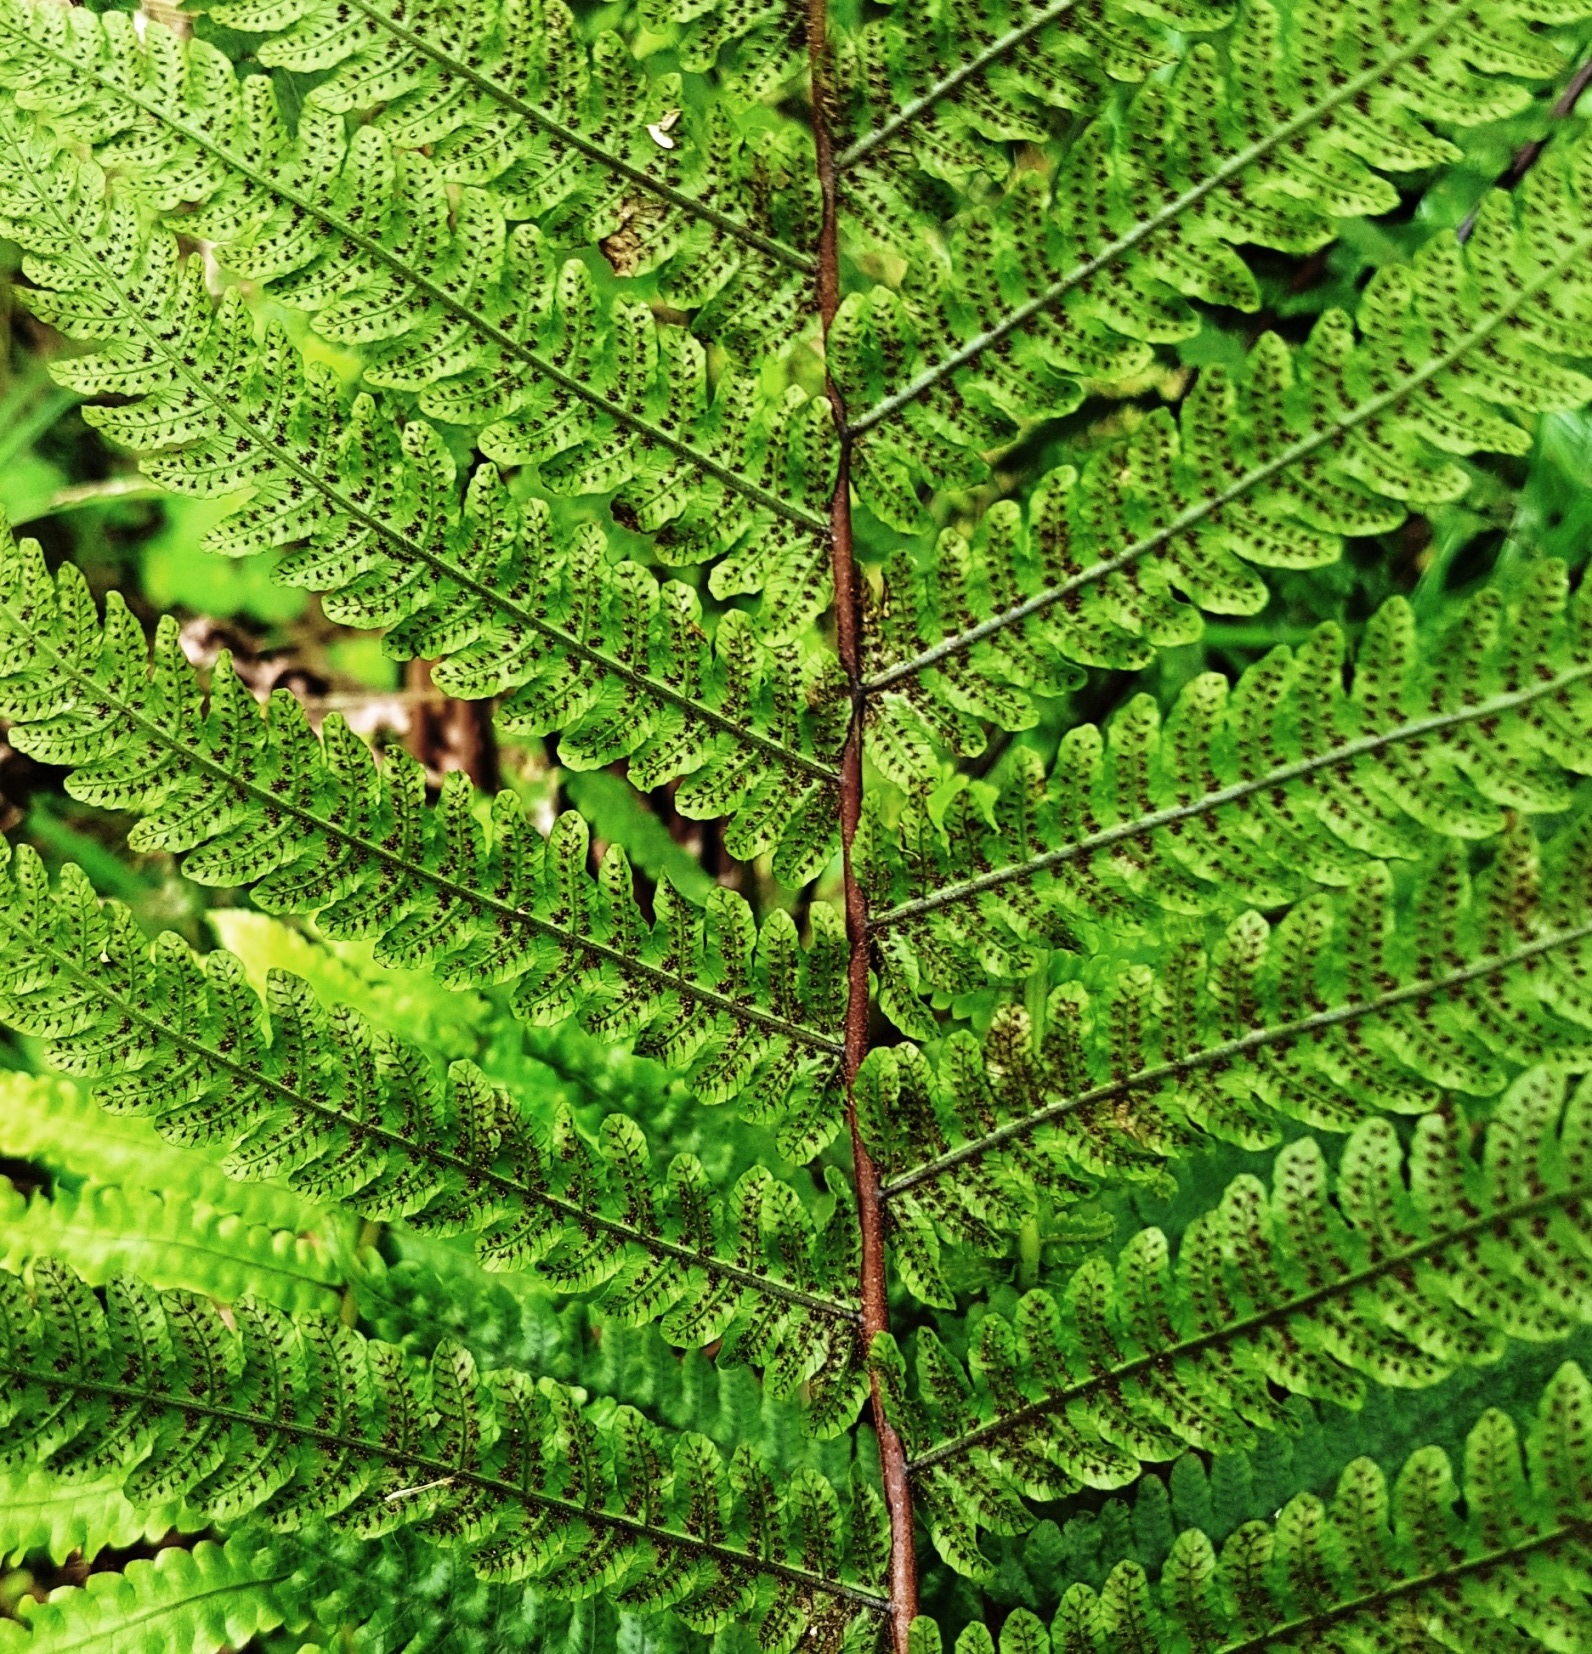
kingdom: Plantae
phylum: Tracheophyta
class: Polypodiopsida
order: Polypodiales
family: Thelypteridaceae
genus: Pakau
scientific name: Pakau pennigera
